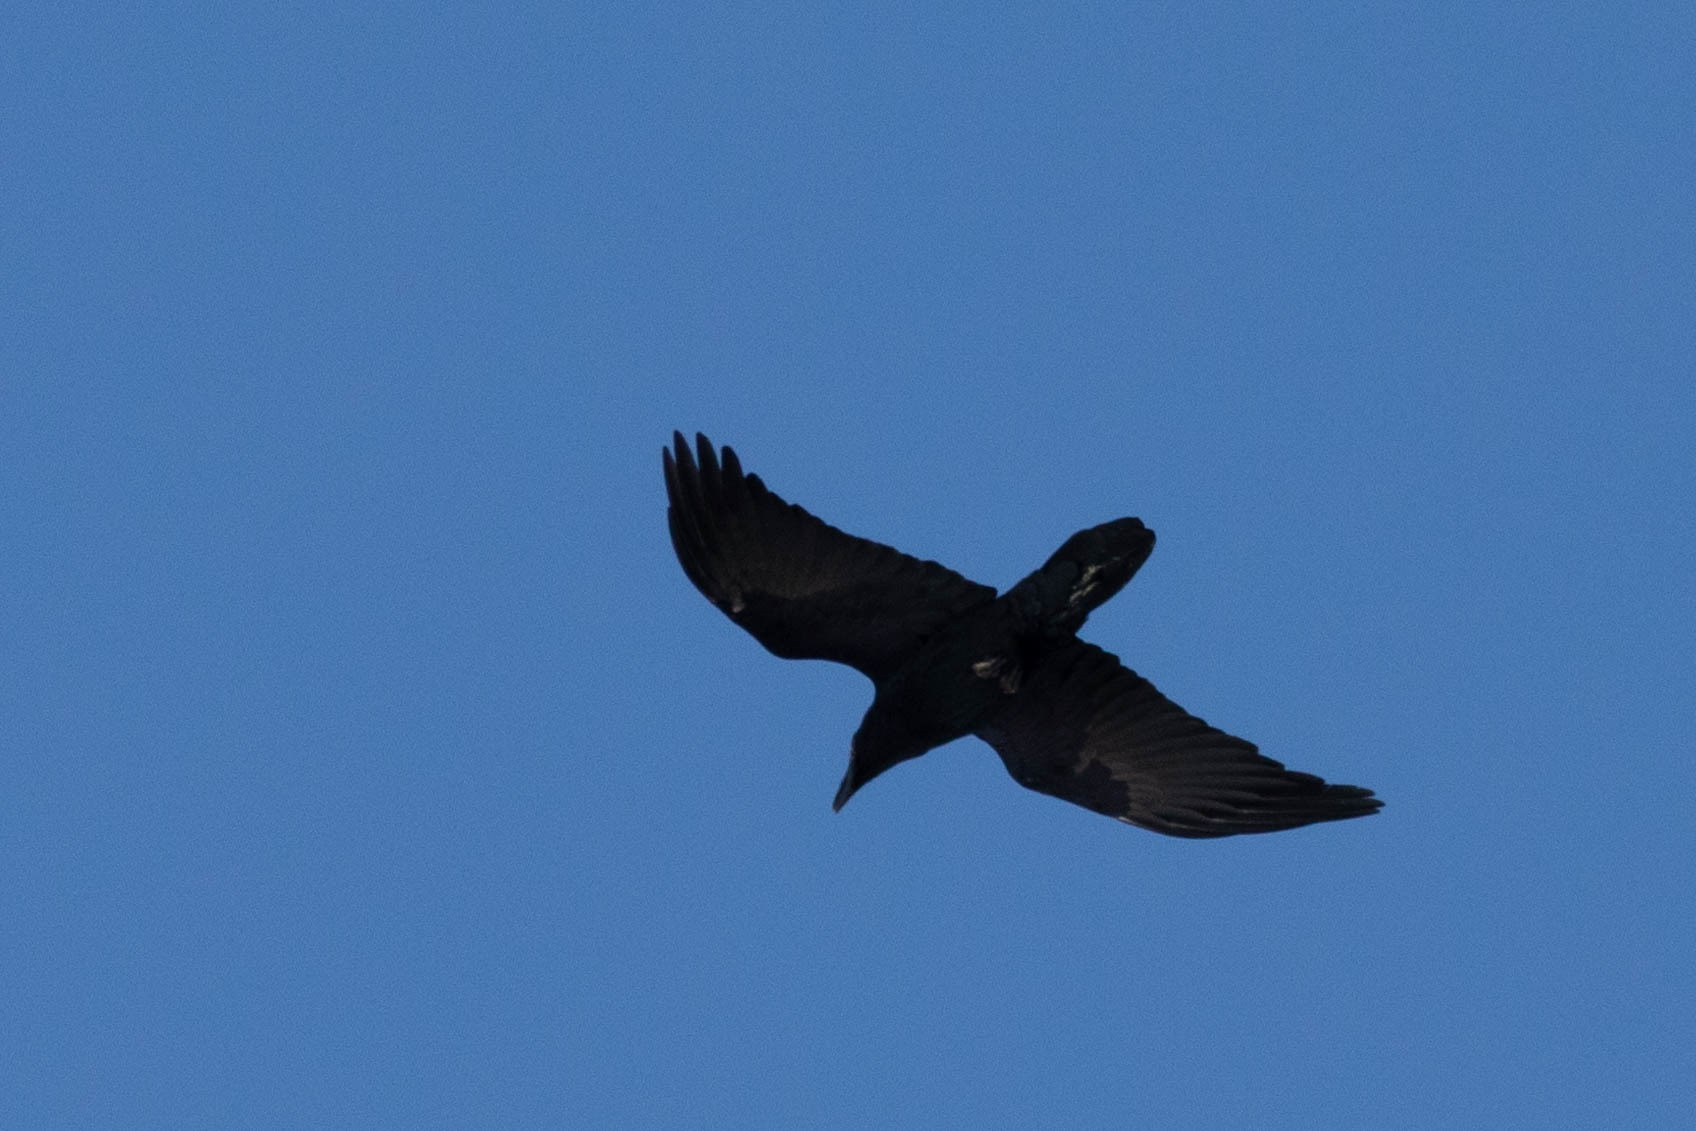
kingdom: Animalia
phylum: Chordata
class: Aves
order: Passeriformes
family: Corvidae
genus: Corvus
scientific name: Corvus corax
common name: Common raven
